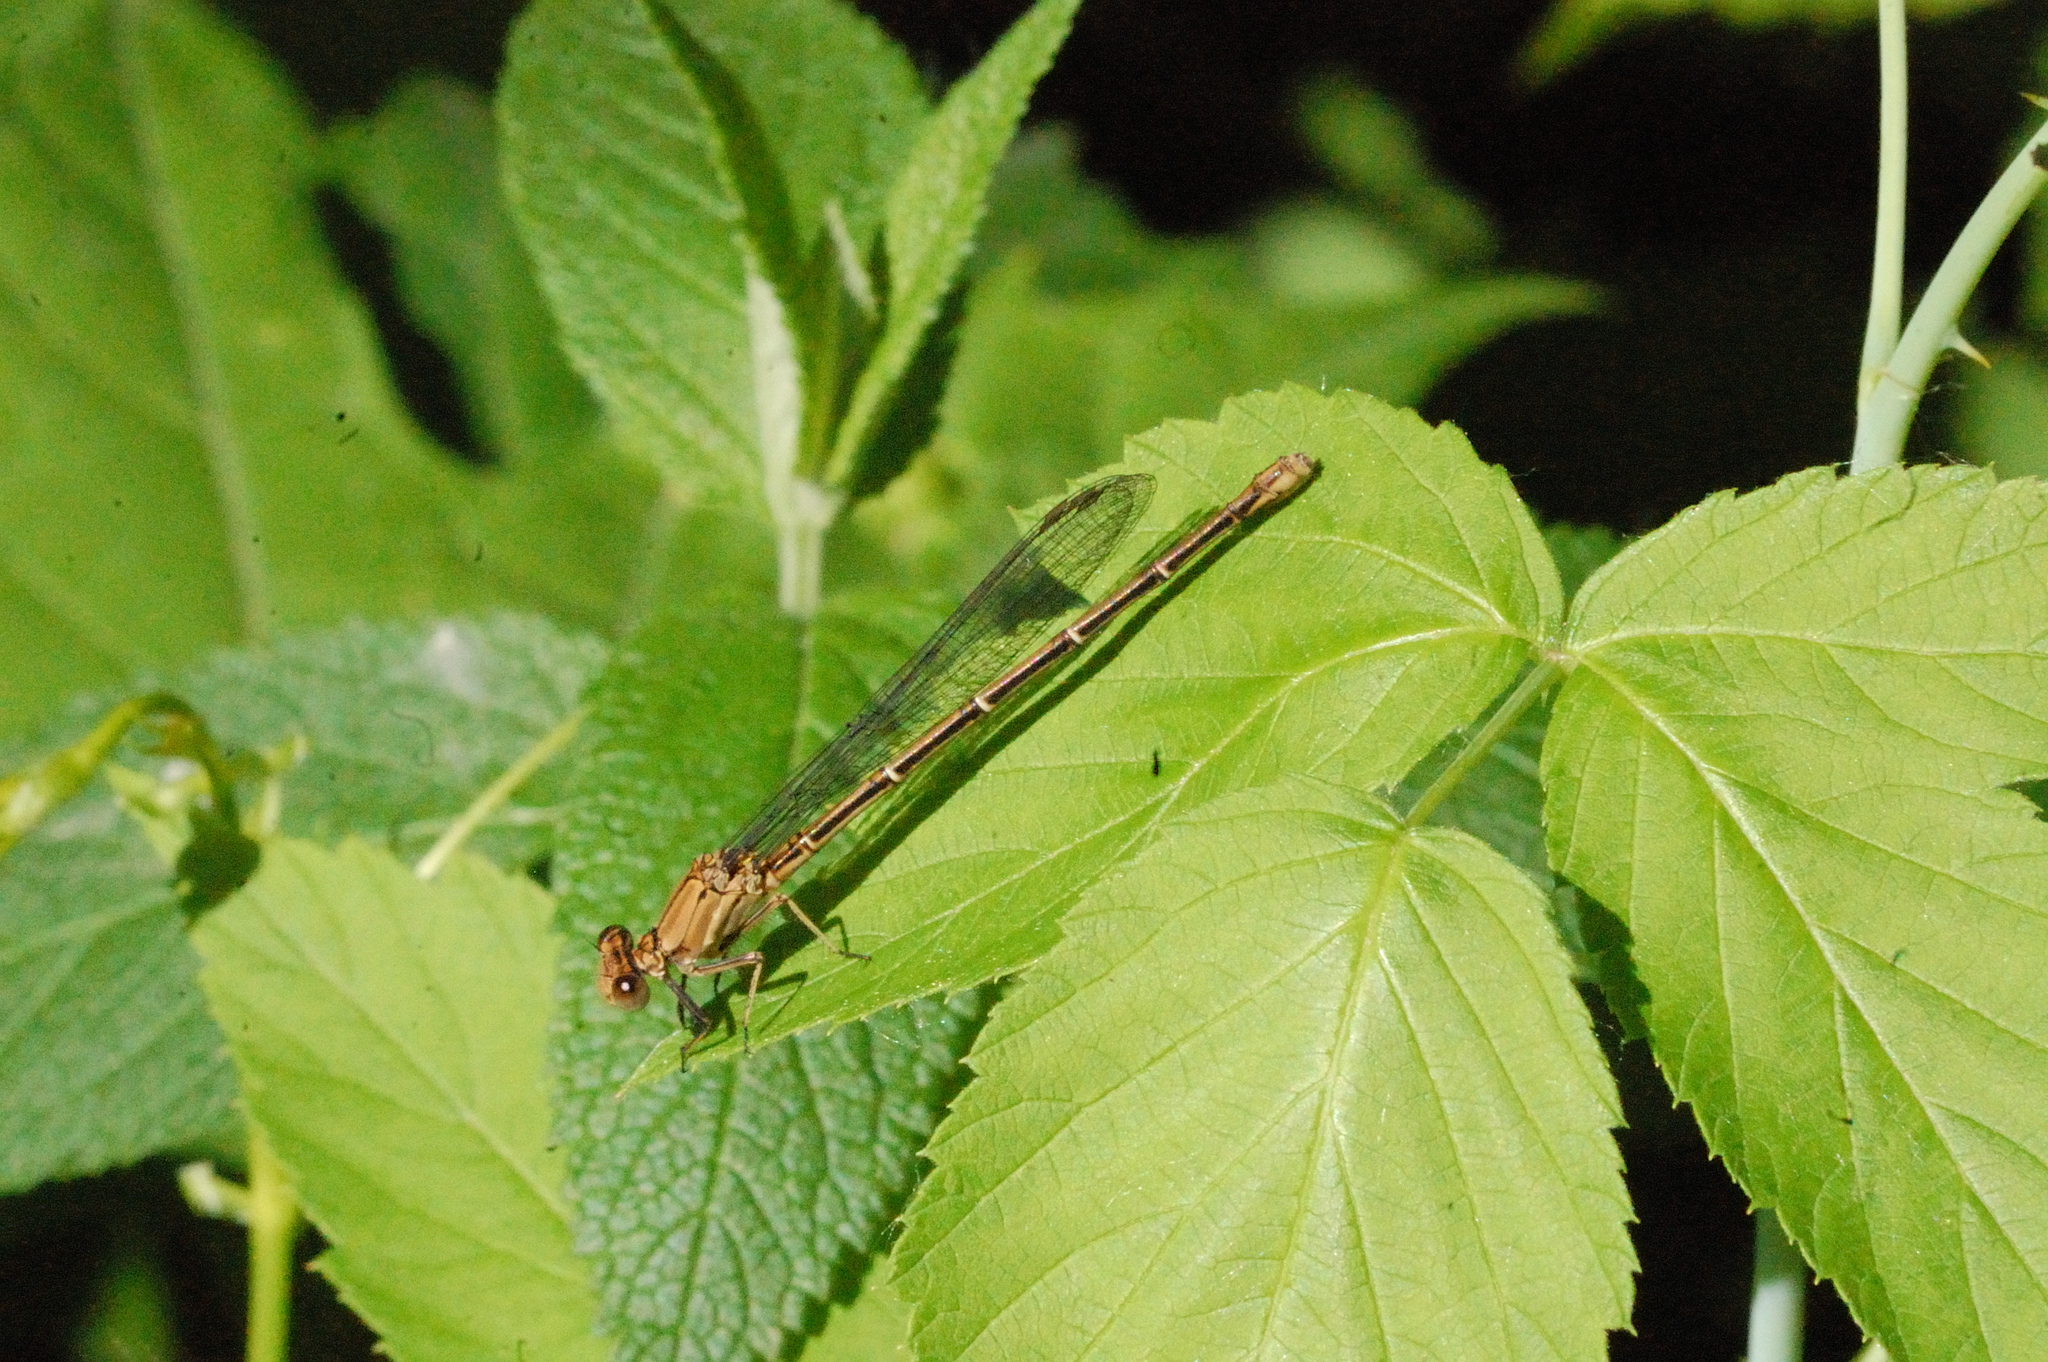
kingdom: Animalia
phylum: Arthropoda
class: Insecta
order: Odonata
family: Coenagrionidae
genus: Argia
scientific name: Argia moesta
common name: Powdered dancer
